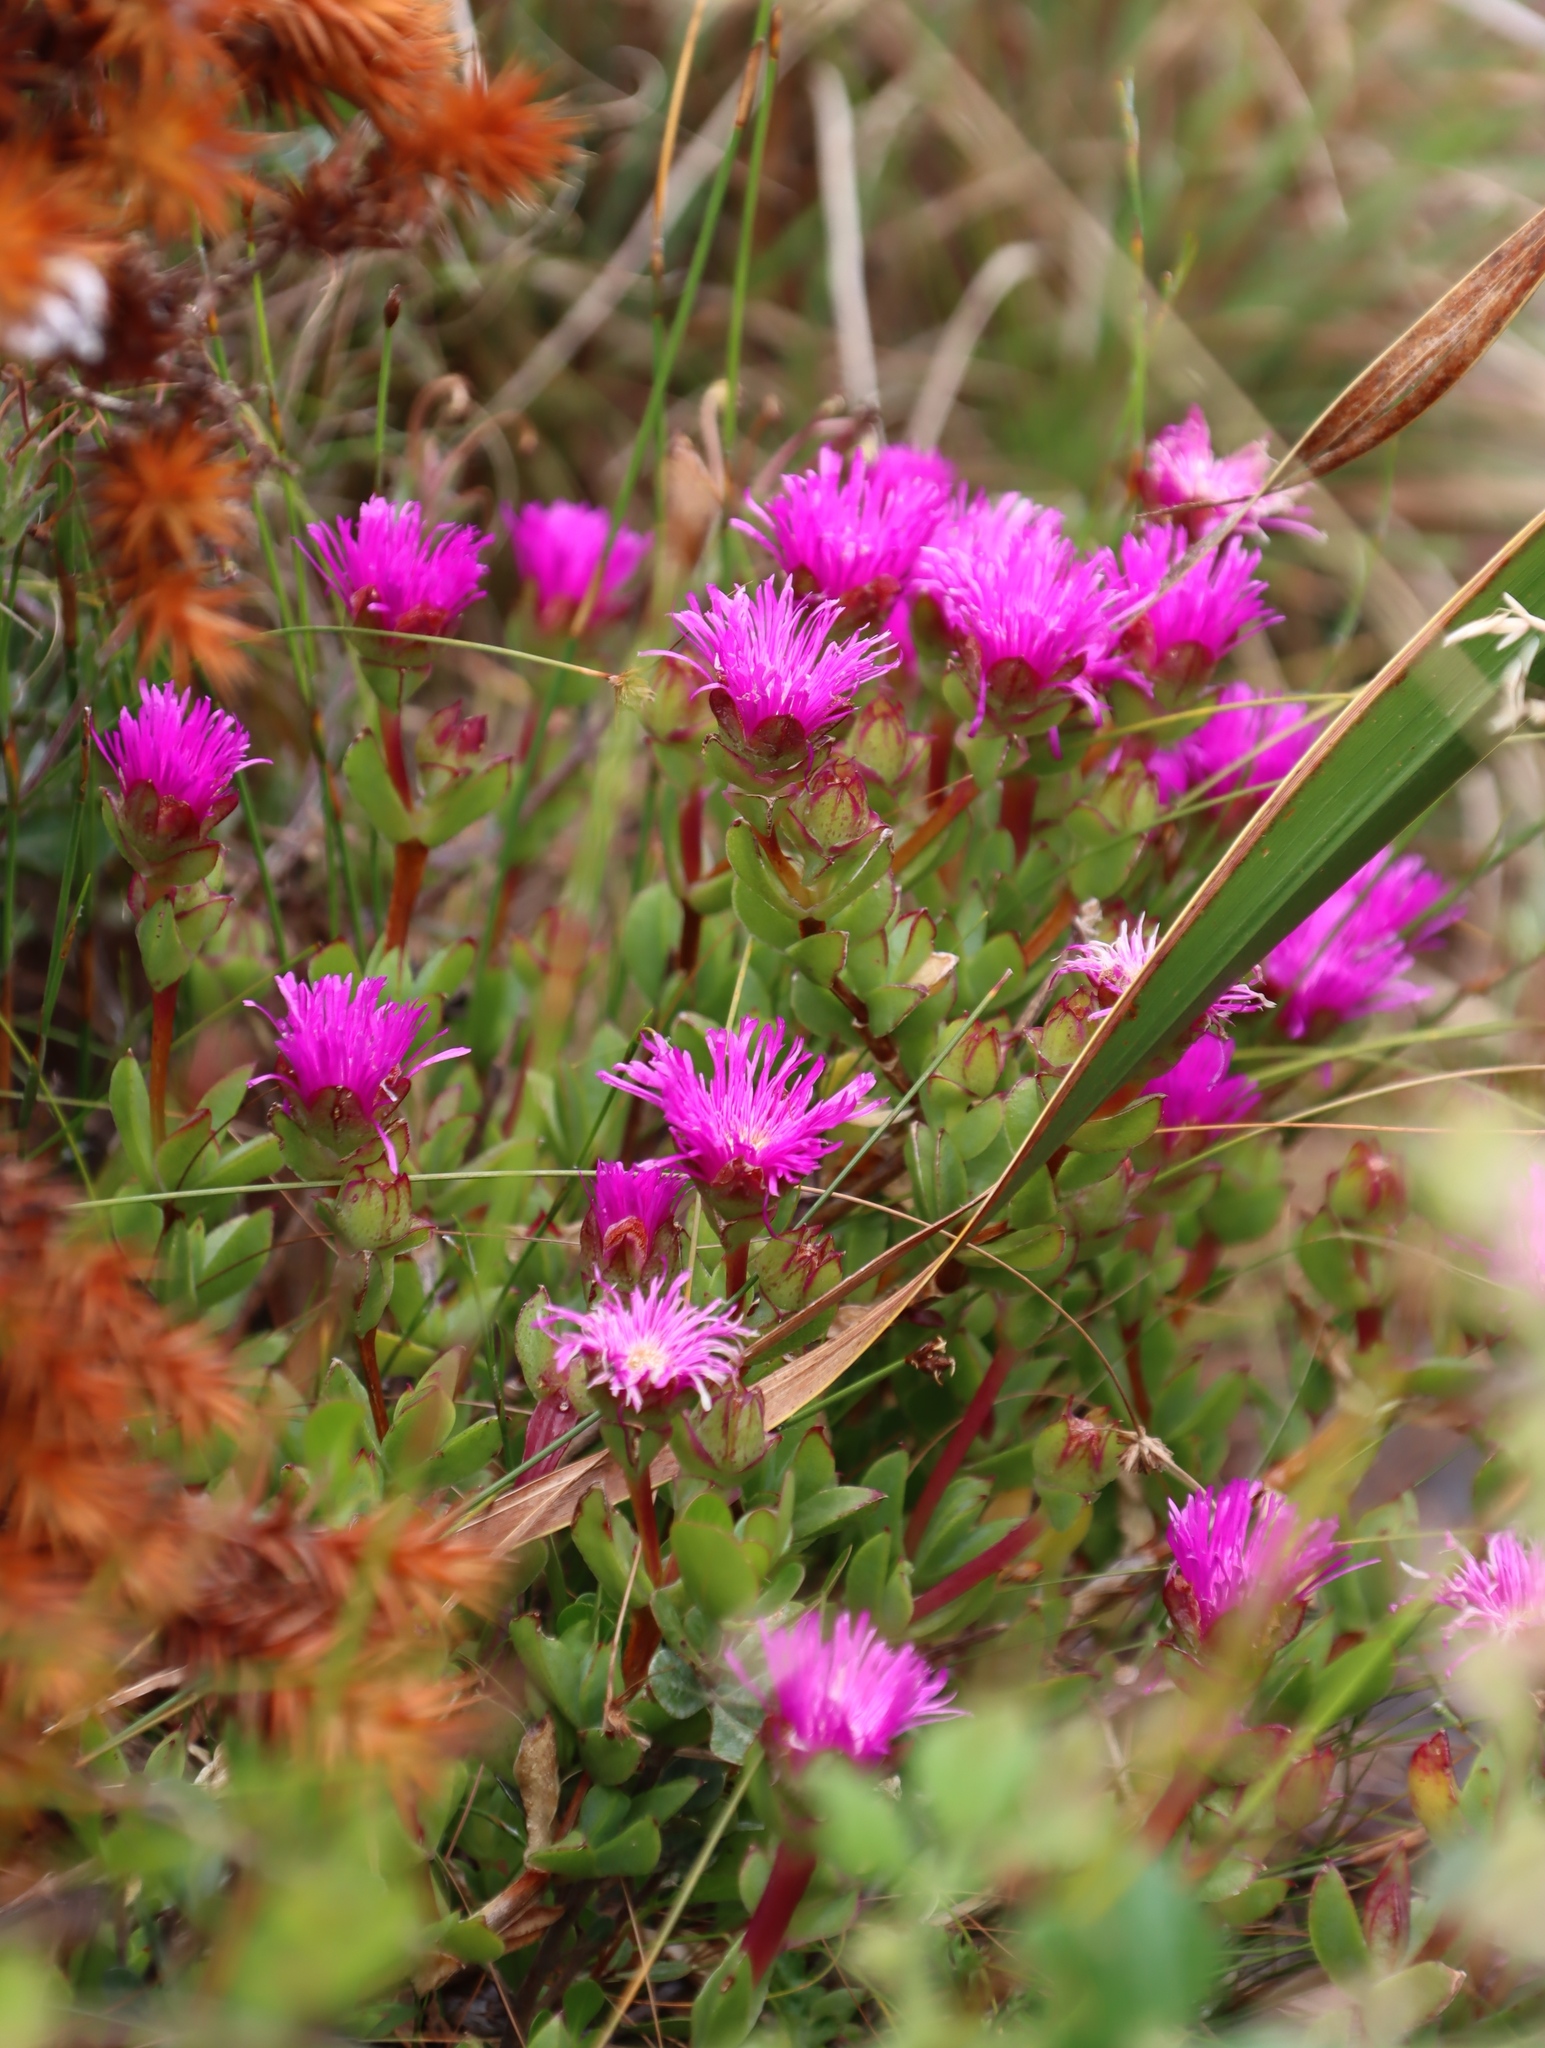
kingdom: Plantae
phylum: Tracheophyta
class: Magnoliopsida
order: Caryophyllales
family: Aizoaceae
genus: Oscularia
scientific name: Oscularia falciformis
